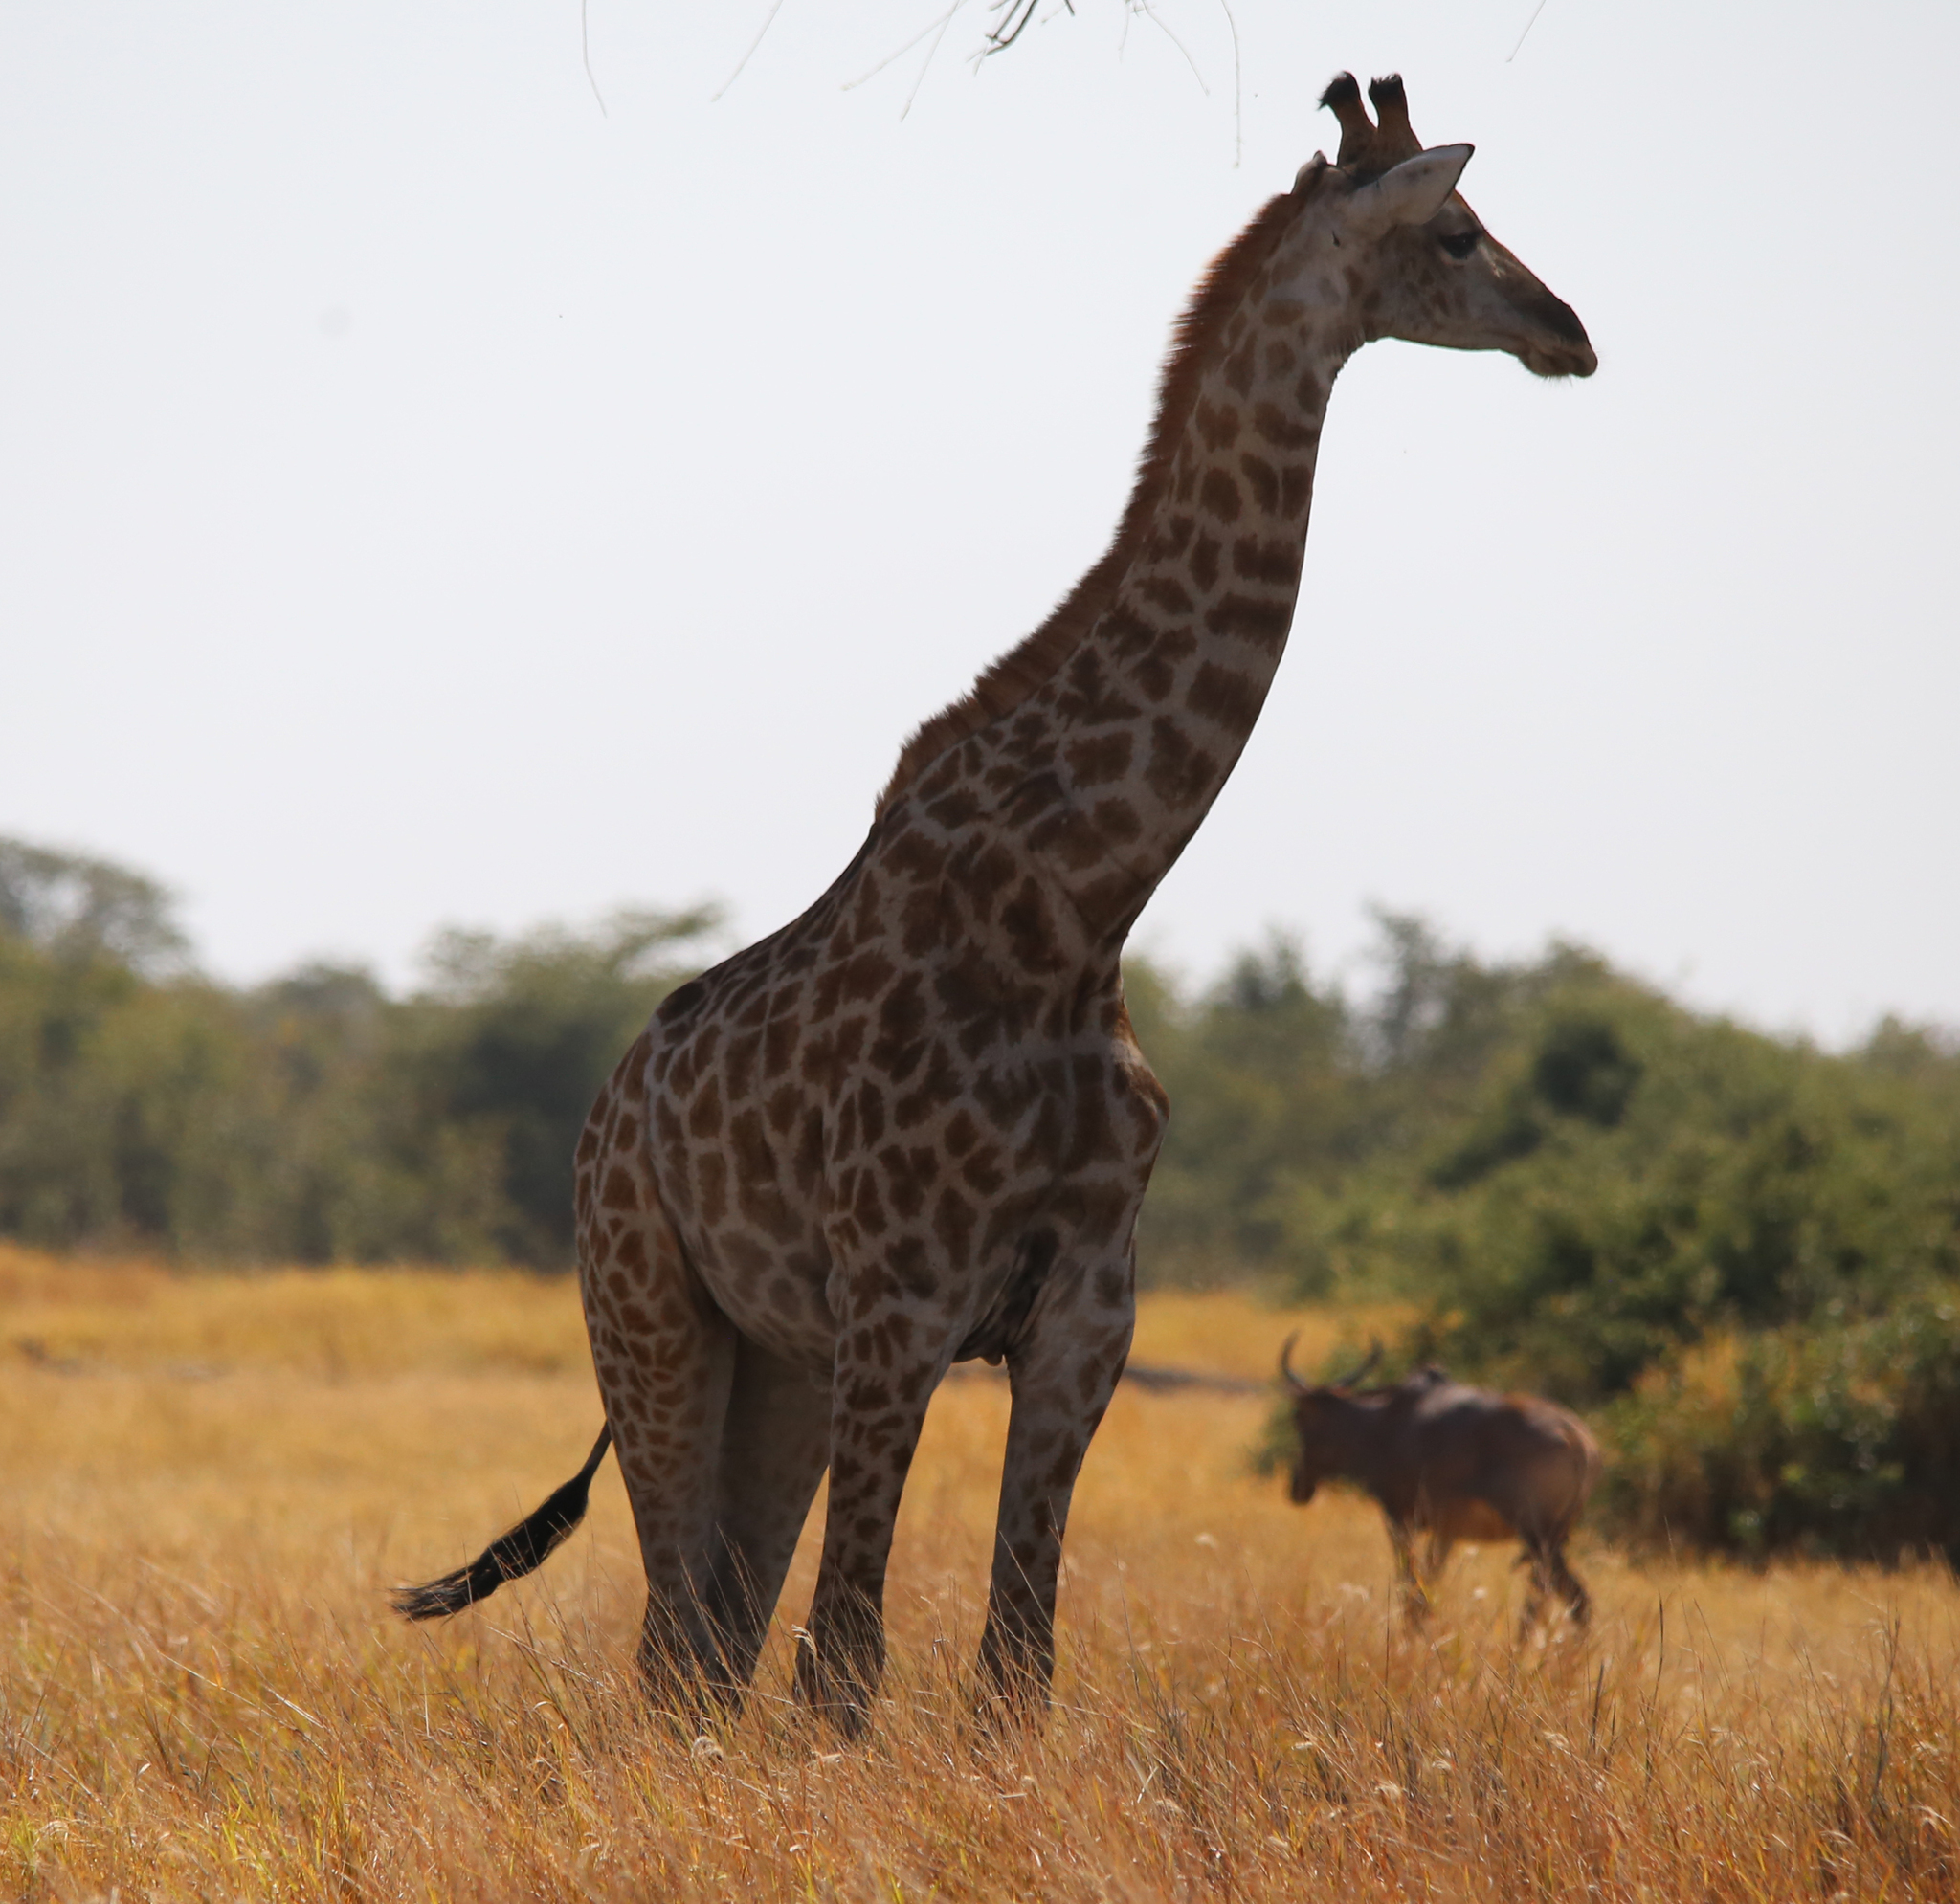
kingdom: Animalia
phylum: Chordata
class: Mammalia
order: Artiodactyla
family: Giraffidae
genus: Giraffa
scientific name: Giraffa giraffa
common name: Southern giraffe
